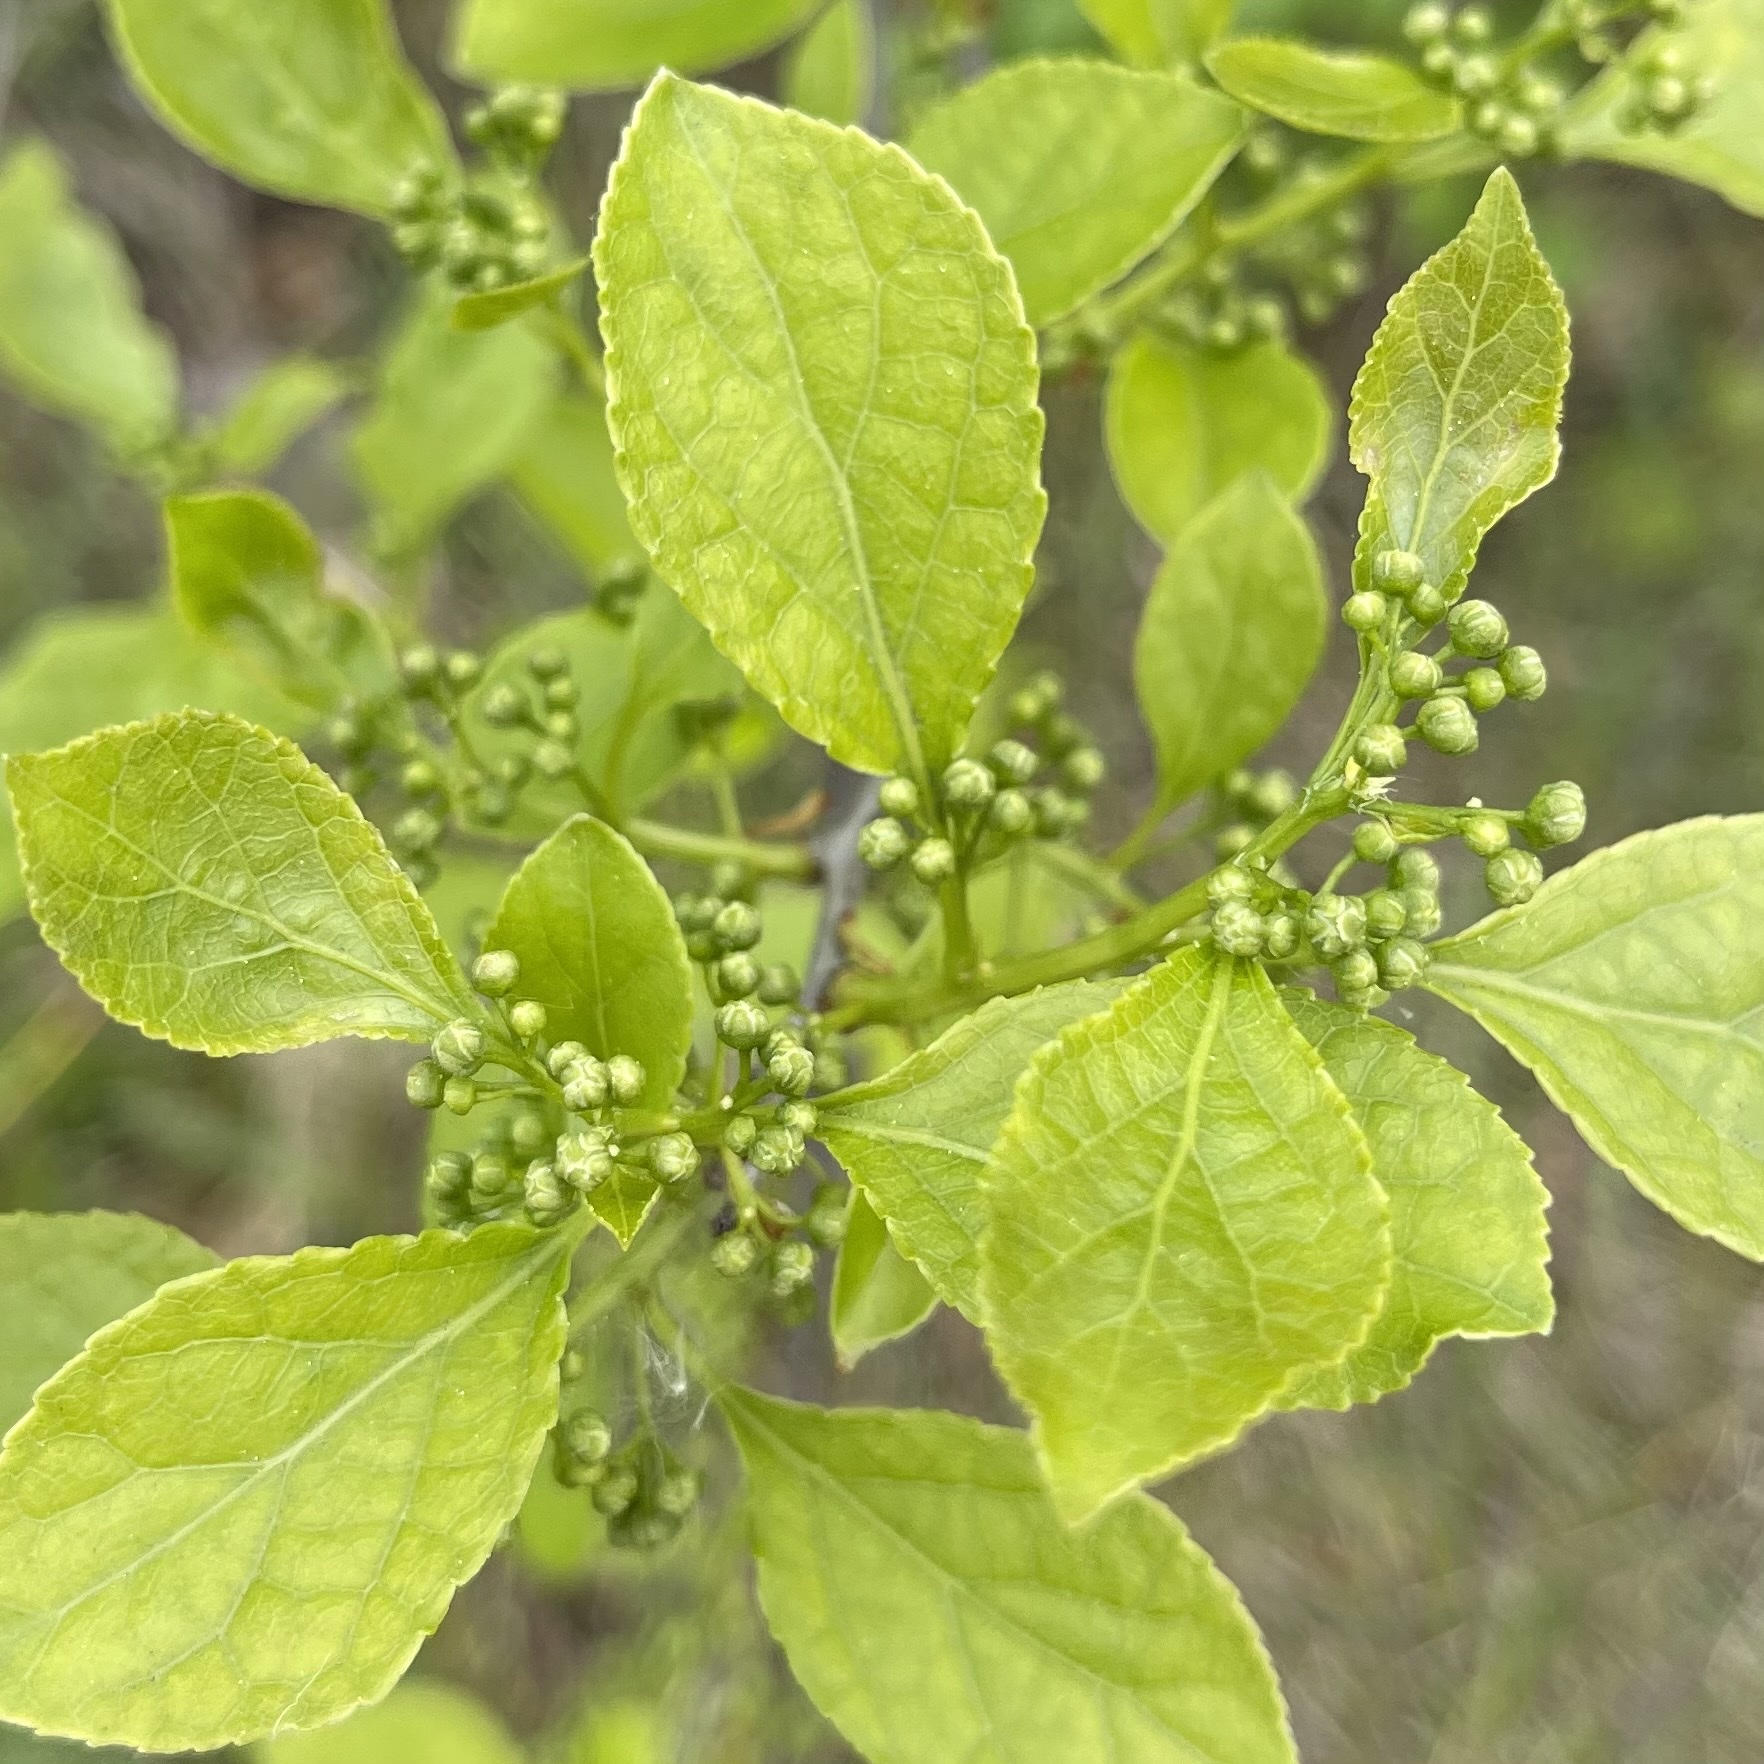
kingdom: Plantae
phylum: Tracheophyta
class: Magnoliopsida
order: Celastrales
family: Celastraceae
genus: Celastrus
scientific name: Celastrus orbiculatus
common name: Oriental bittersweet
